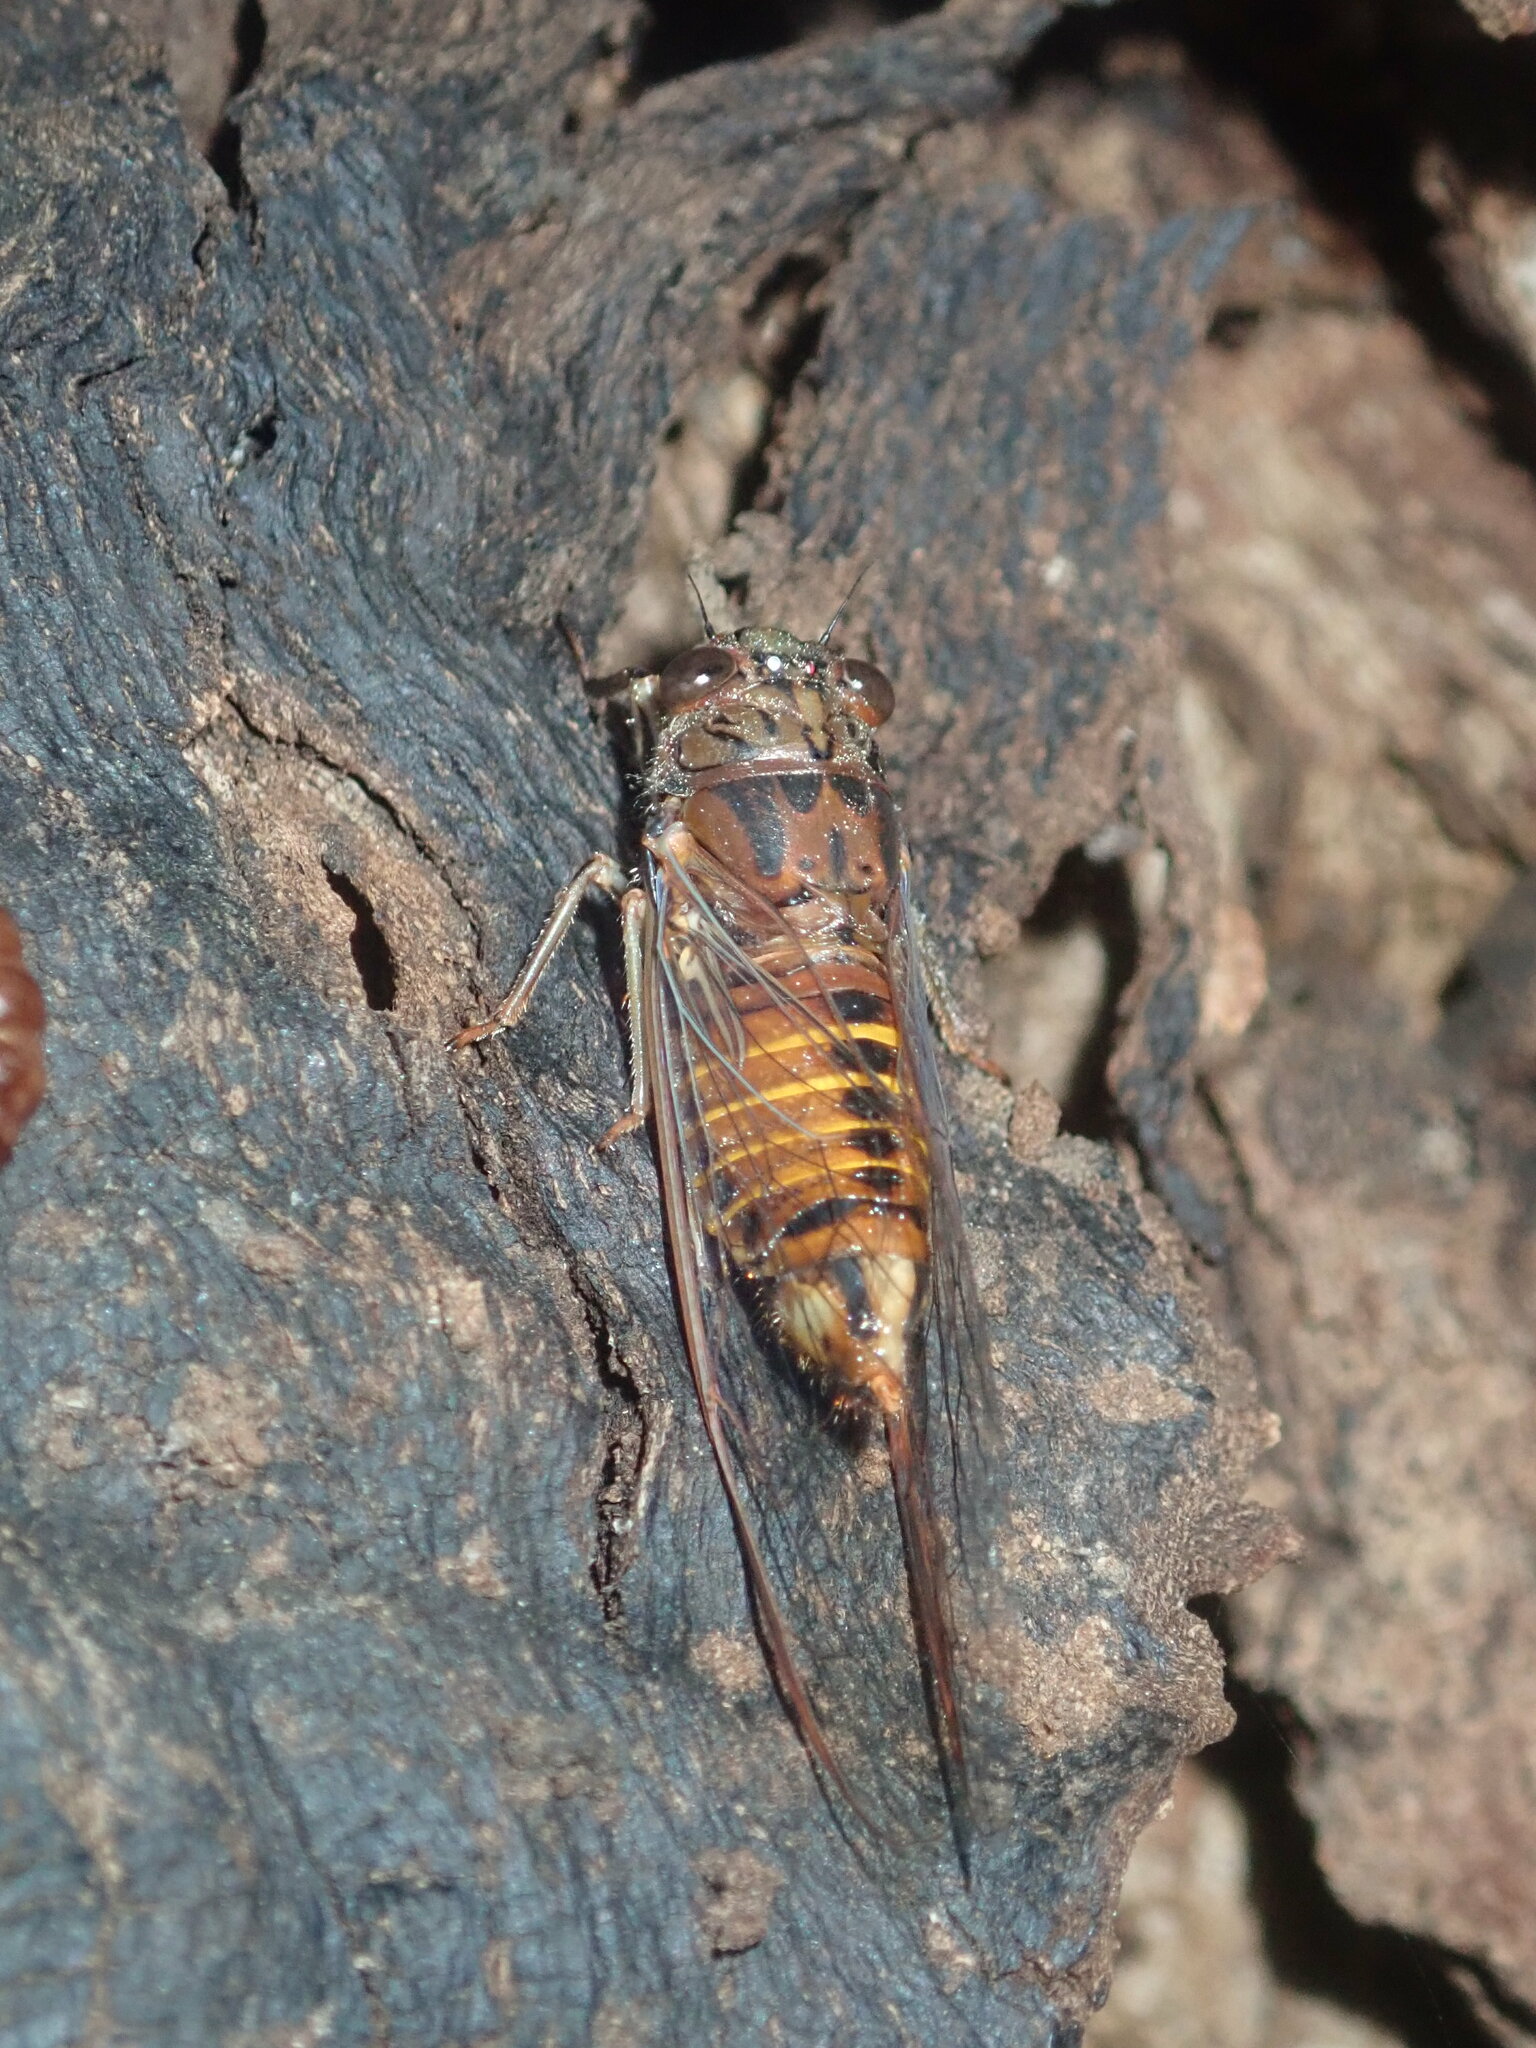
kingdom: Animalia
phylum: Arthropoda
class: Insecta
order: Hemiptera
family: Cicadidae
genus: Yoyetta
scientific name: Yoyetta repetens
